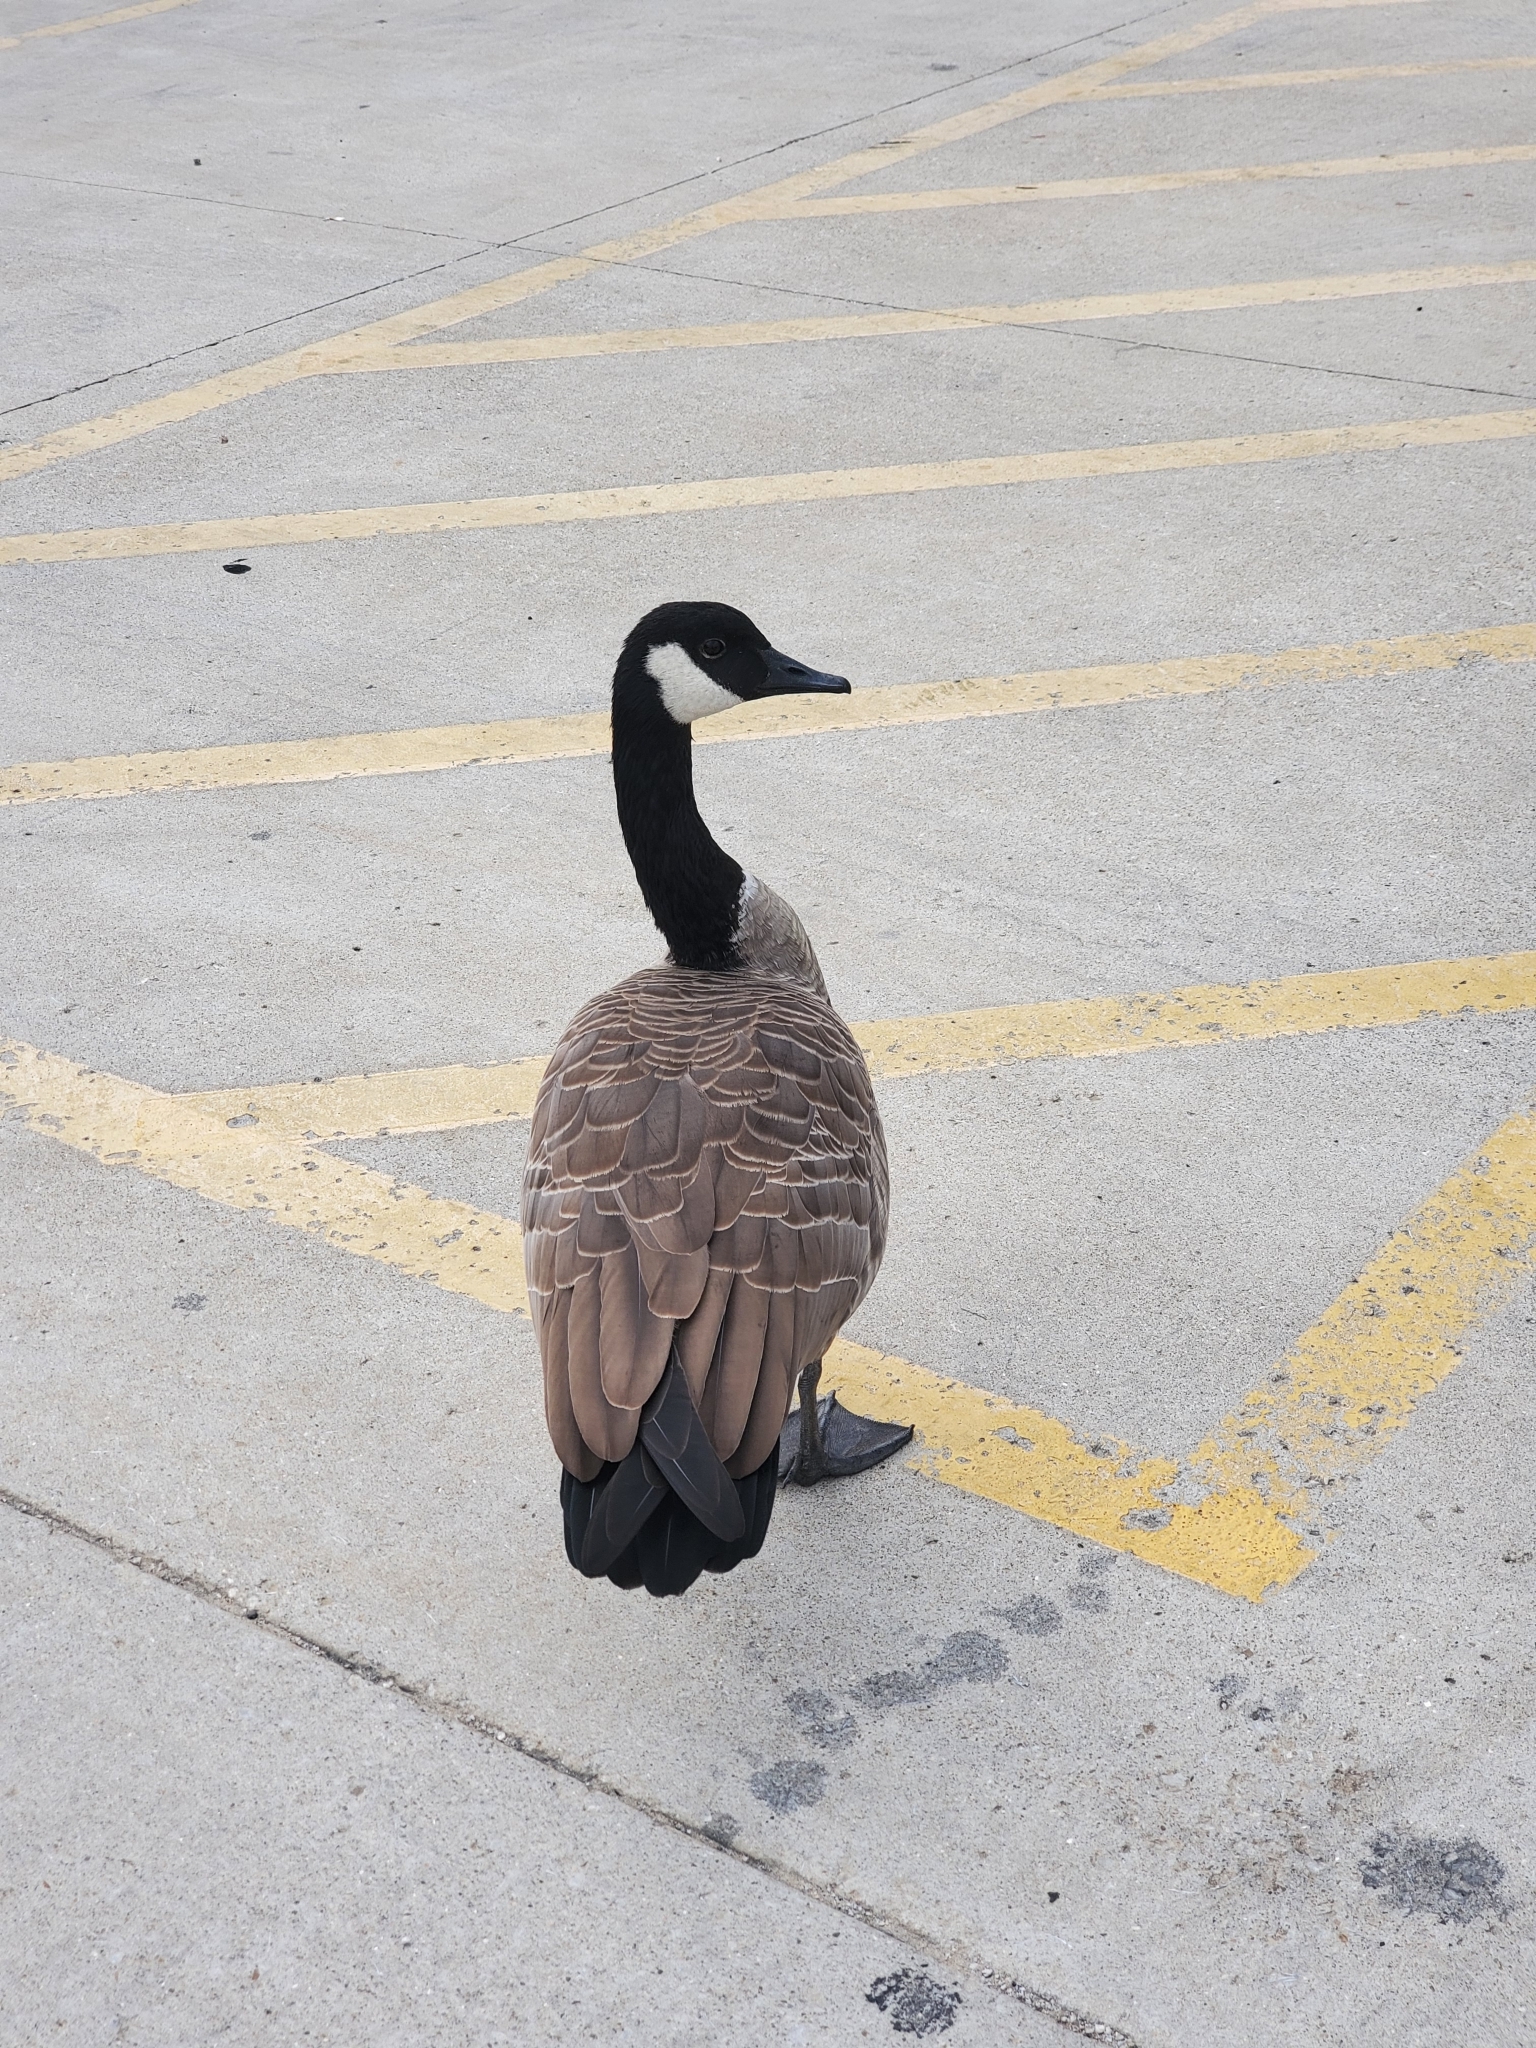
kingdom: Animalia
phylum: Chordata
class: Aves
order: Anseriformes
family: Anatidae
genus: Branta
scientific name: Branta canadensis
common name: Canada goose
